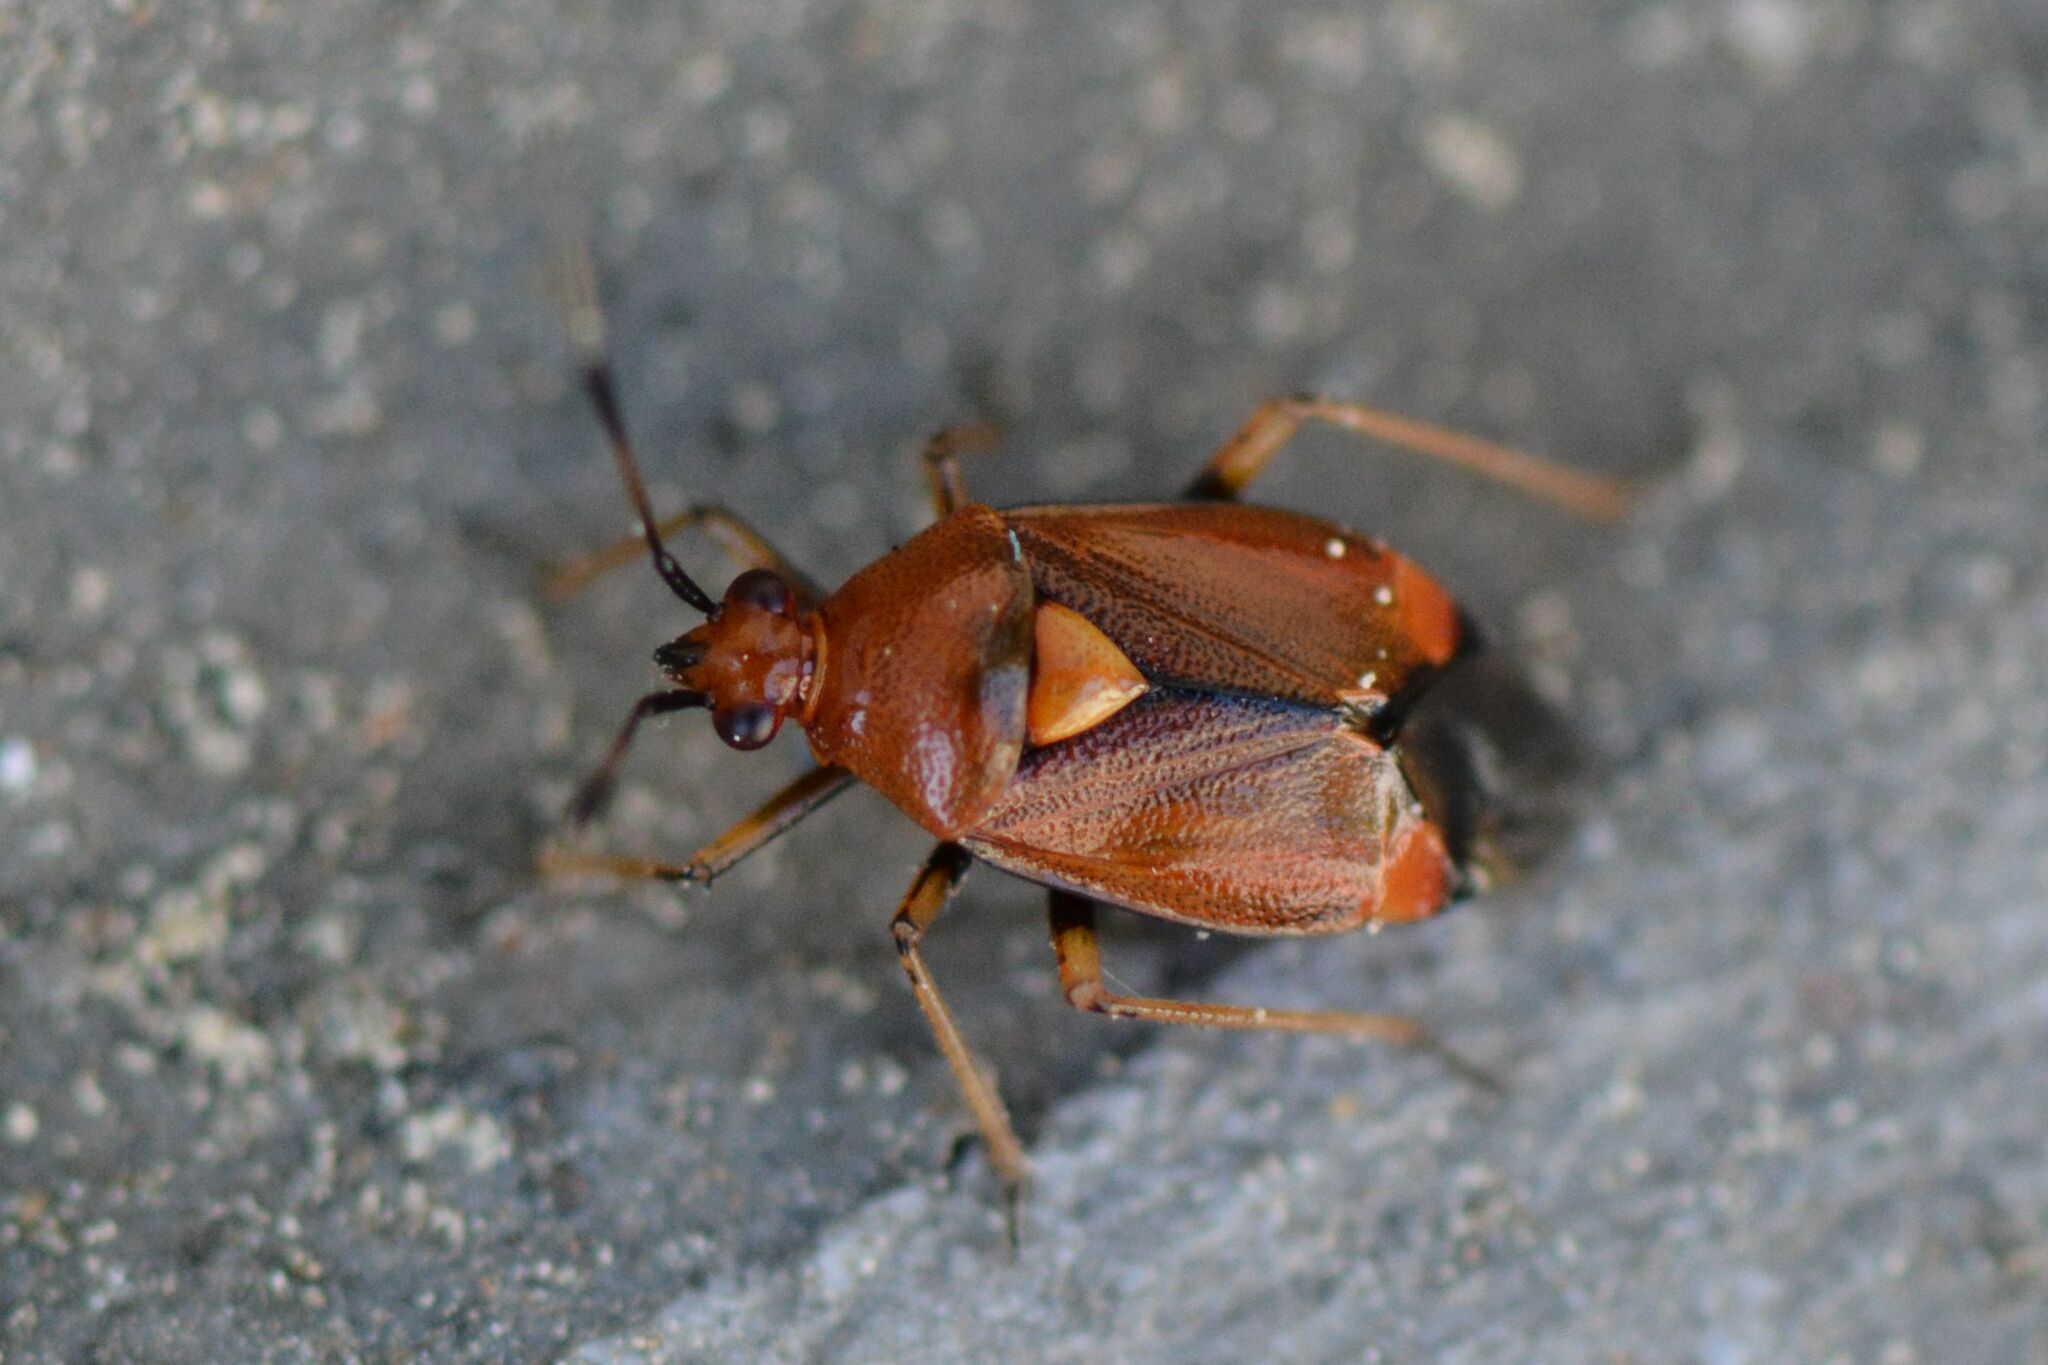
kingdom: Animalia
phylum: Arthropoda
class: Insecta
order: Hemiptera
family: Miridae
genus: Deraeocoris
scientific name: Deraeocoris ruber
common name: Plant bug
